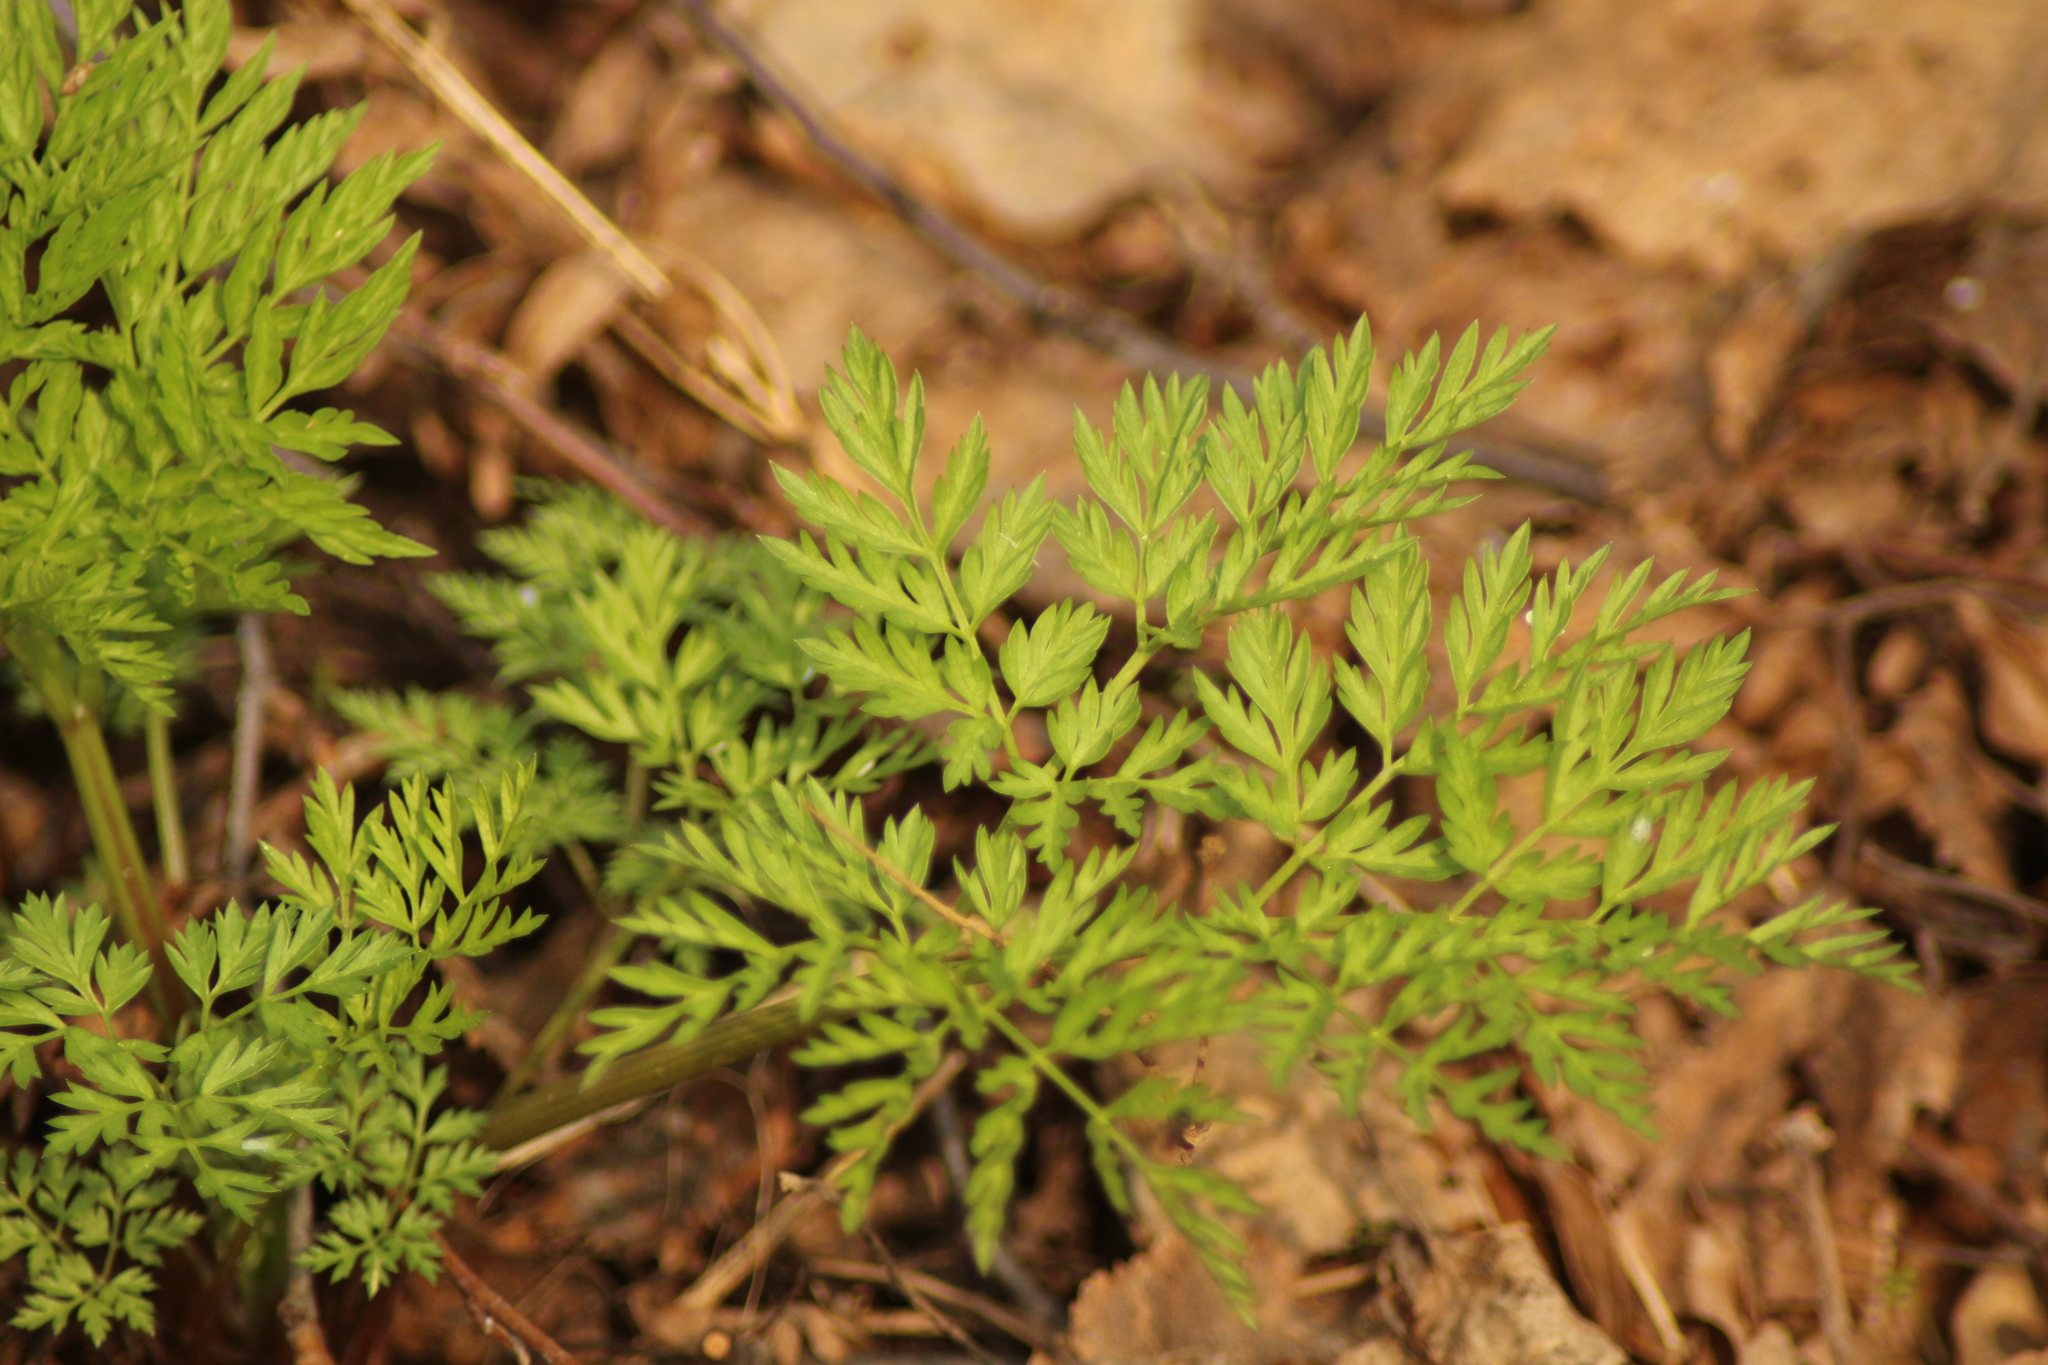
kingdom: Plantae
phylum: Tracheophyta
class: Magnoliopsida
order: Apiales
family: Apiaceae
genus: Anthriscus
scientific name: Anthriscus sylvestris
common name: Cow parsley
